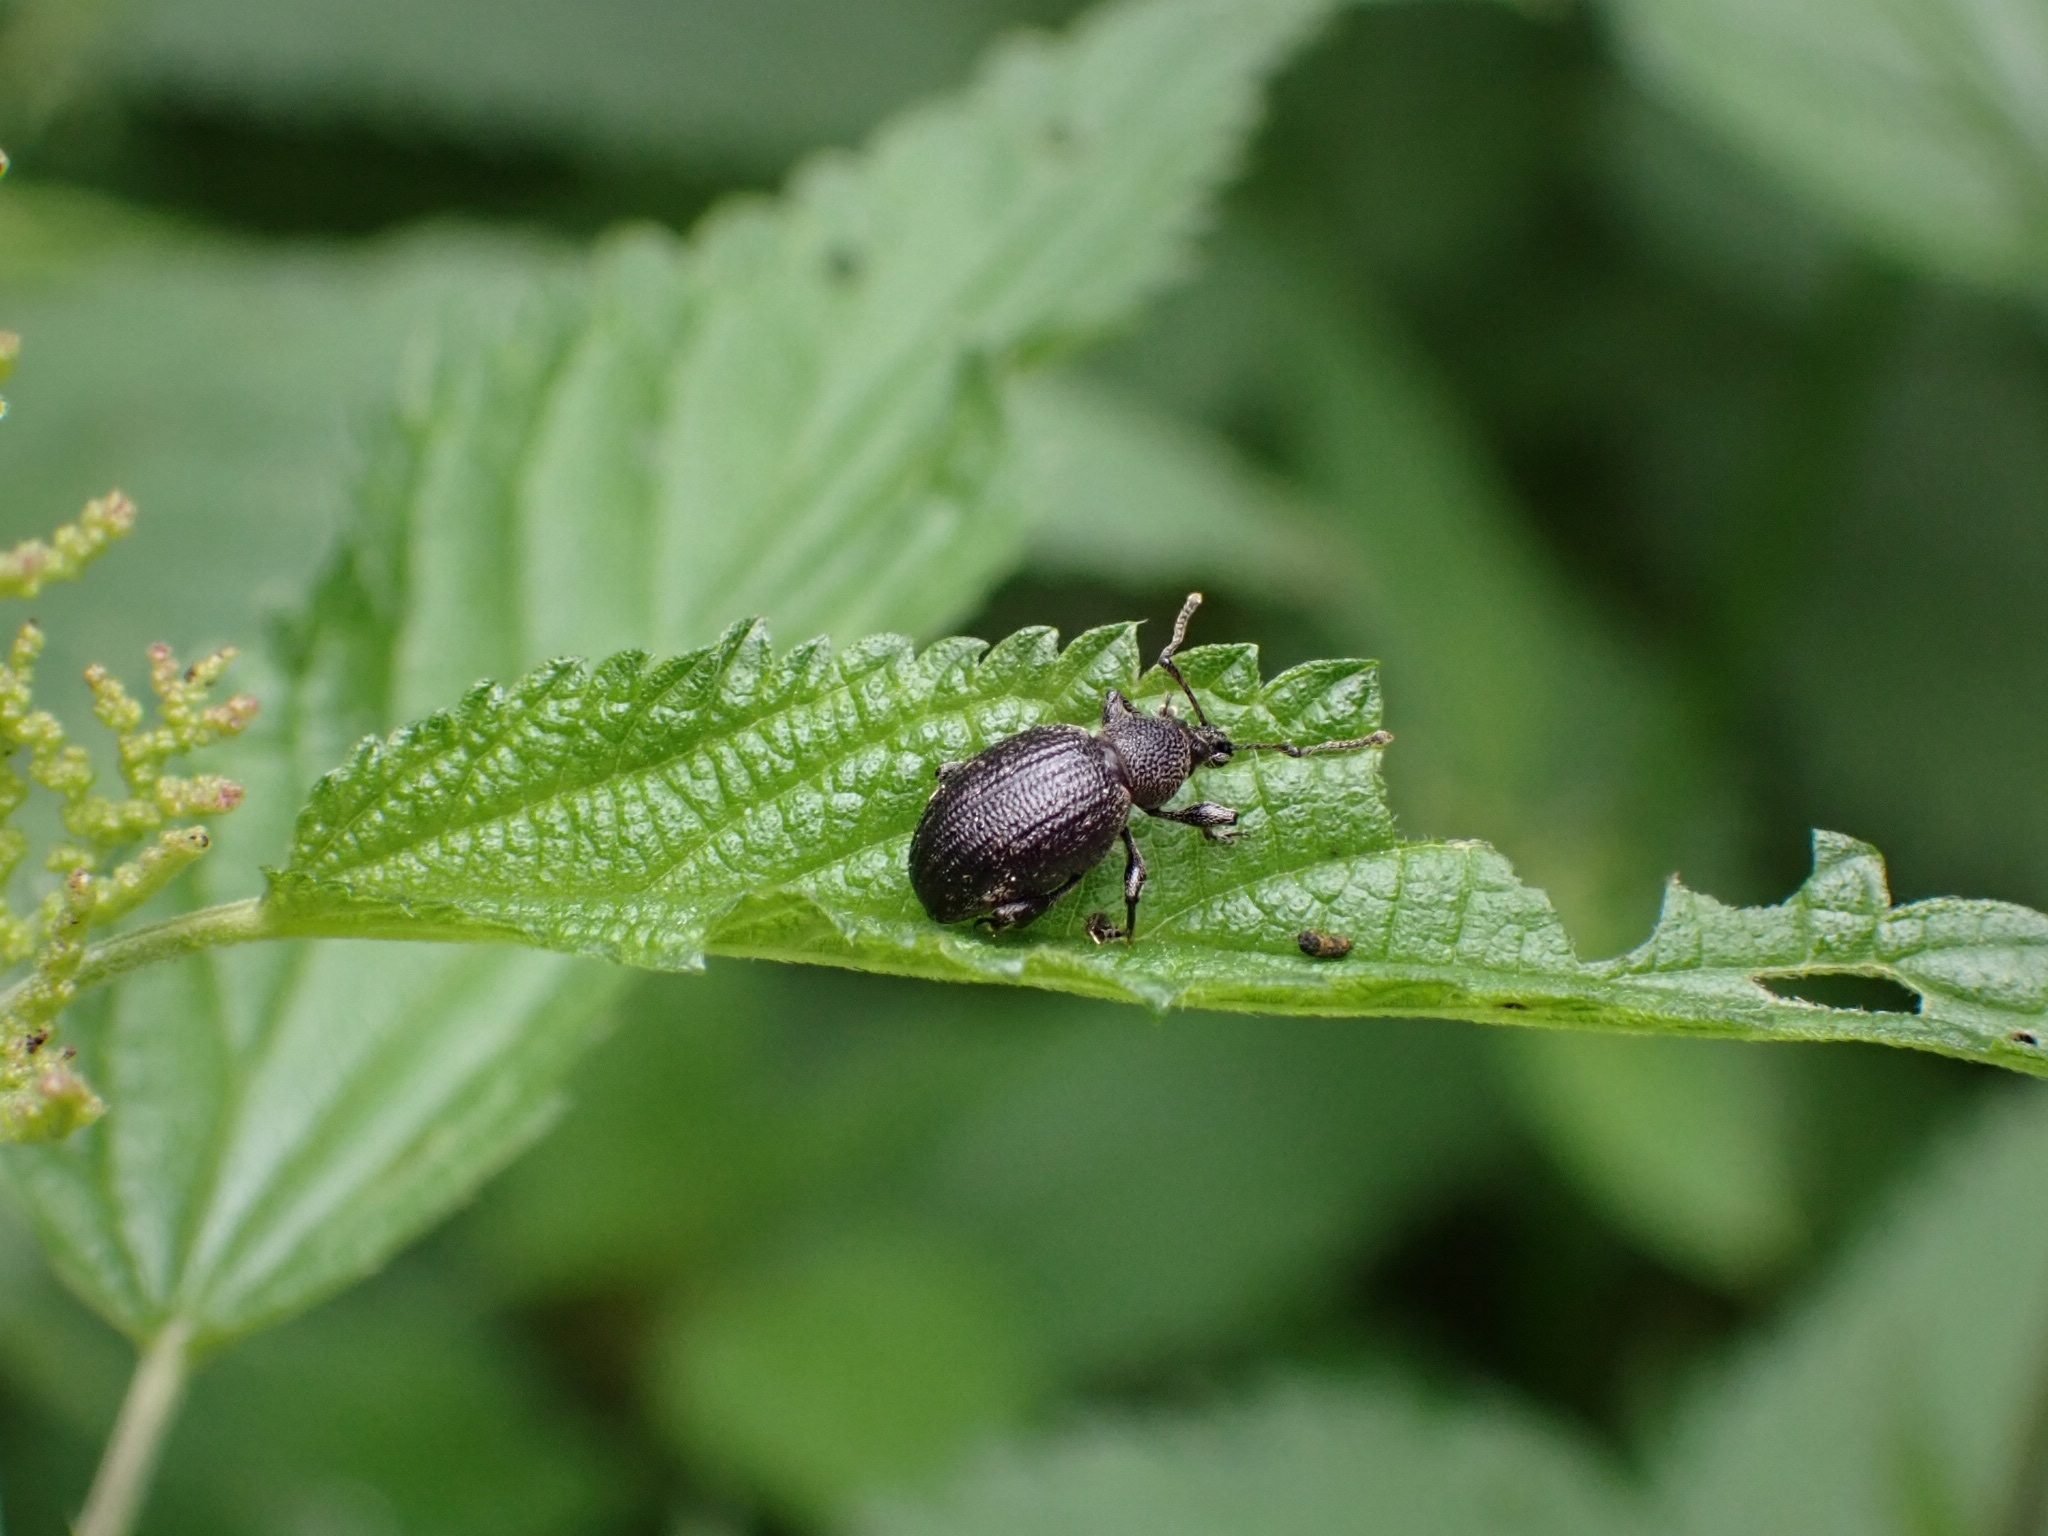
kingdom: Animalia
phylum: Arthropoda
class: Insecta
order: Coleoptera
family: Curculionidae
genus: Otiorhynchus
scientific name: Otiorhynchus tristis
